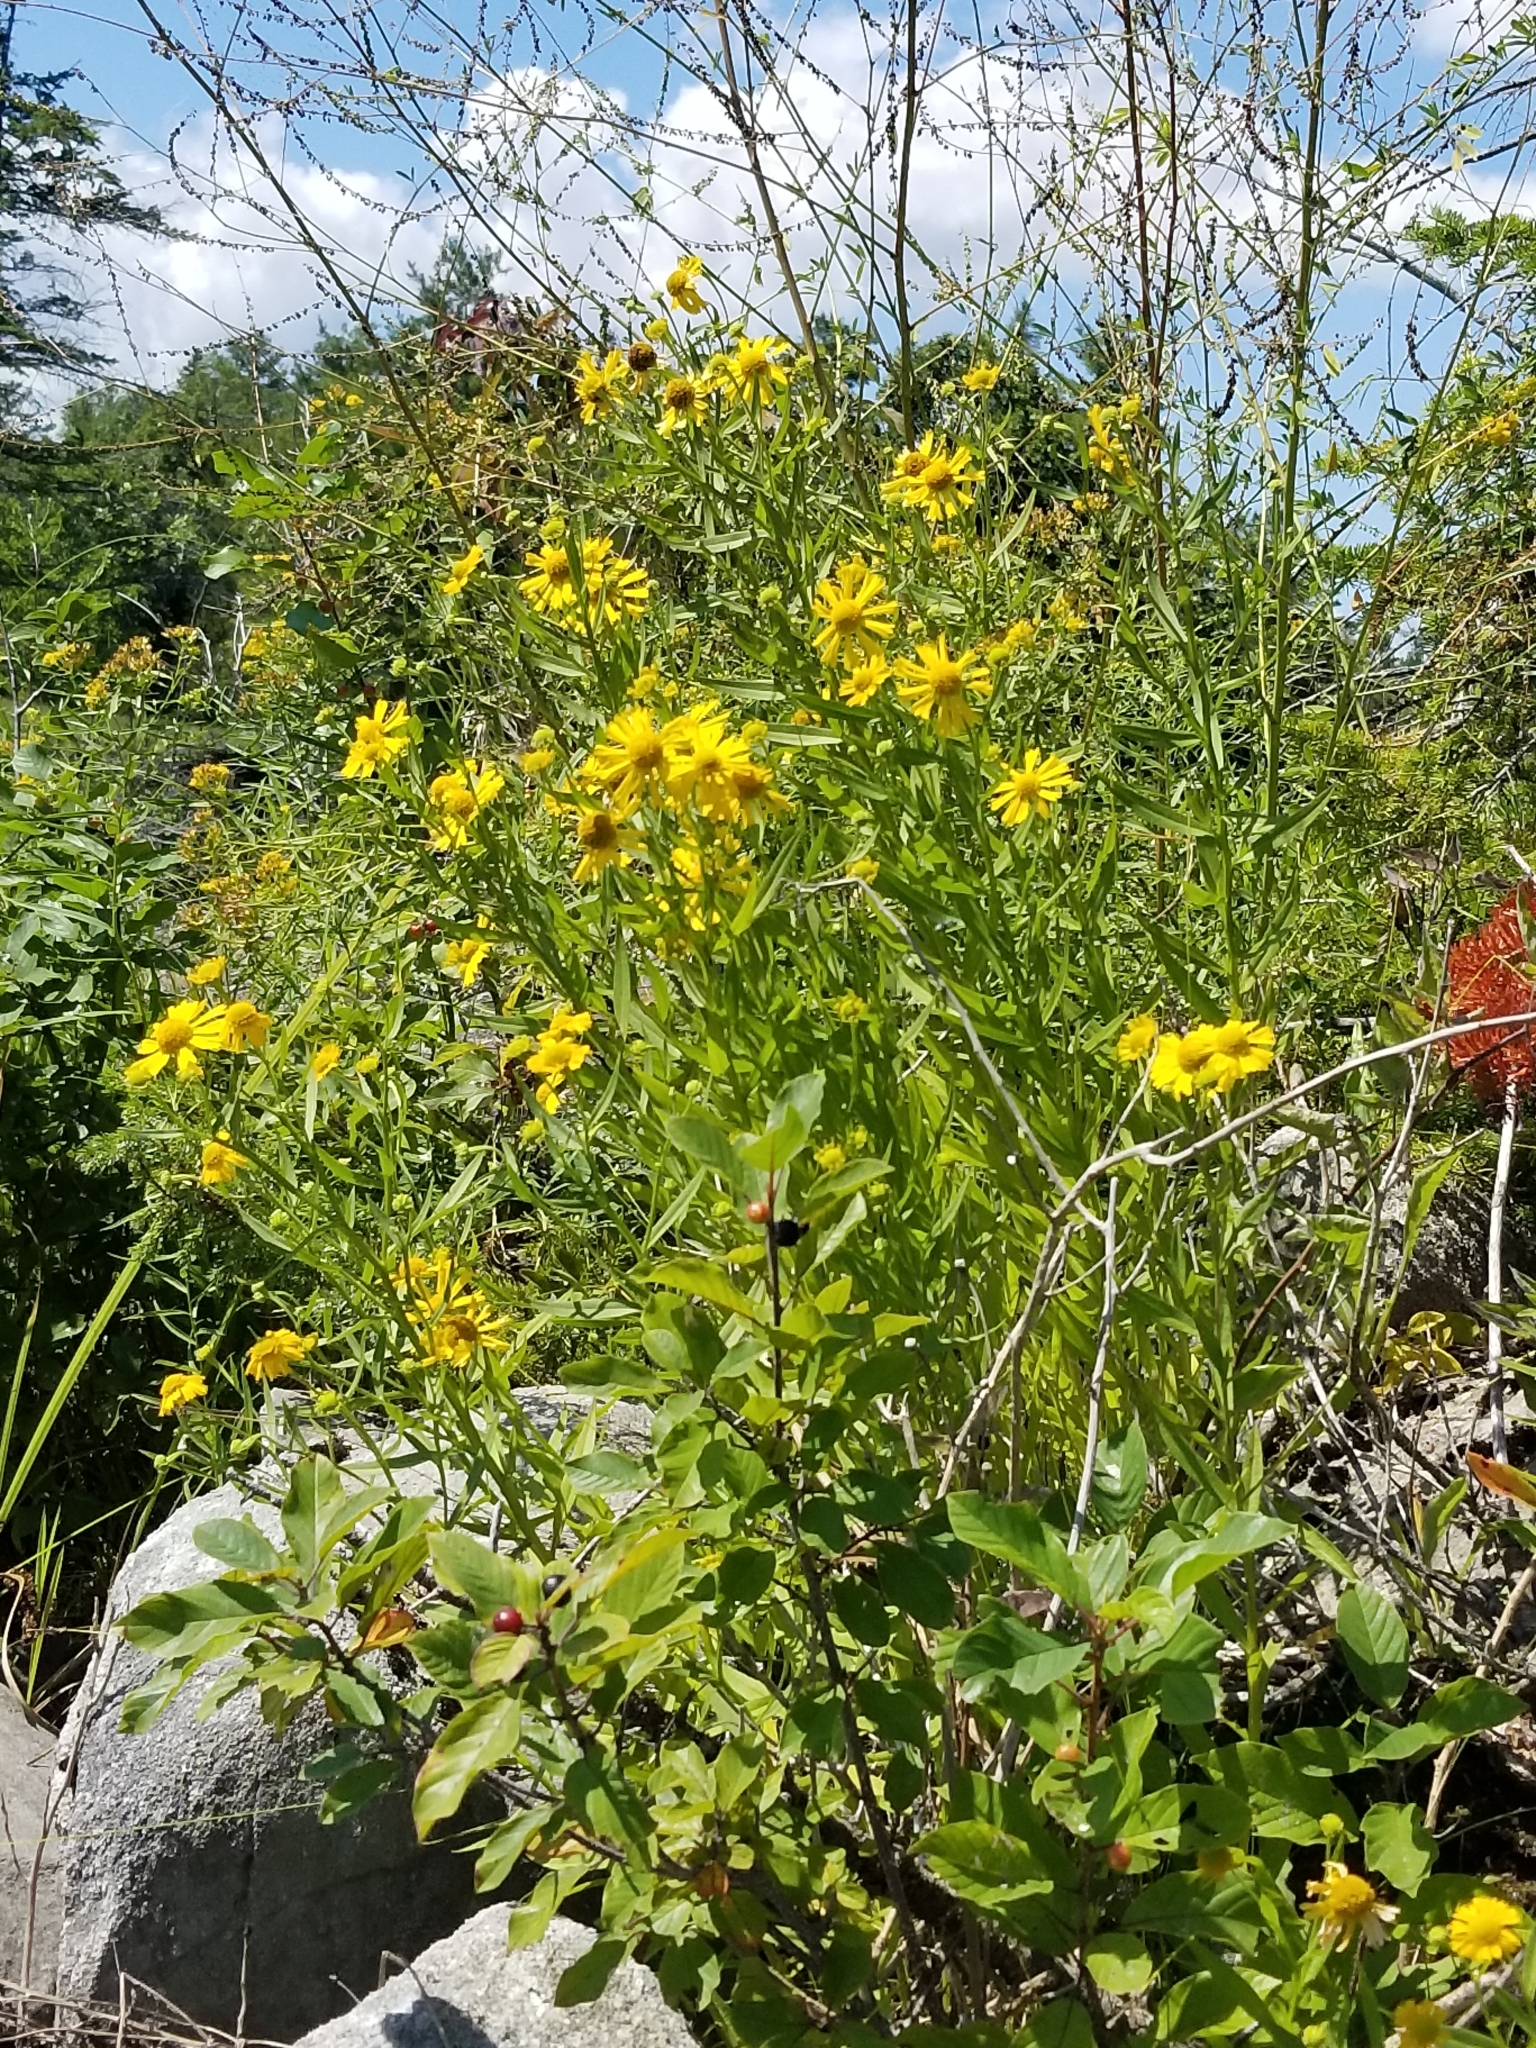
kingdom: Plantae
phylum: Tracheophyta
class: Magnoliopsida
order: Asterales
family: Asteraceae
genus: Helenium
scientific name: Helenium autumnale
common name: Sneezeweed
